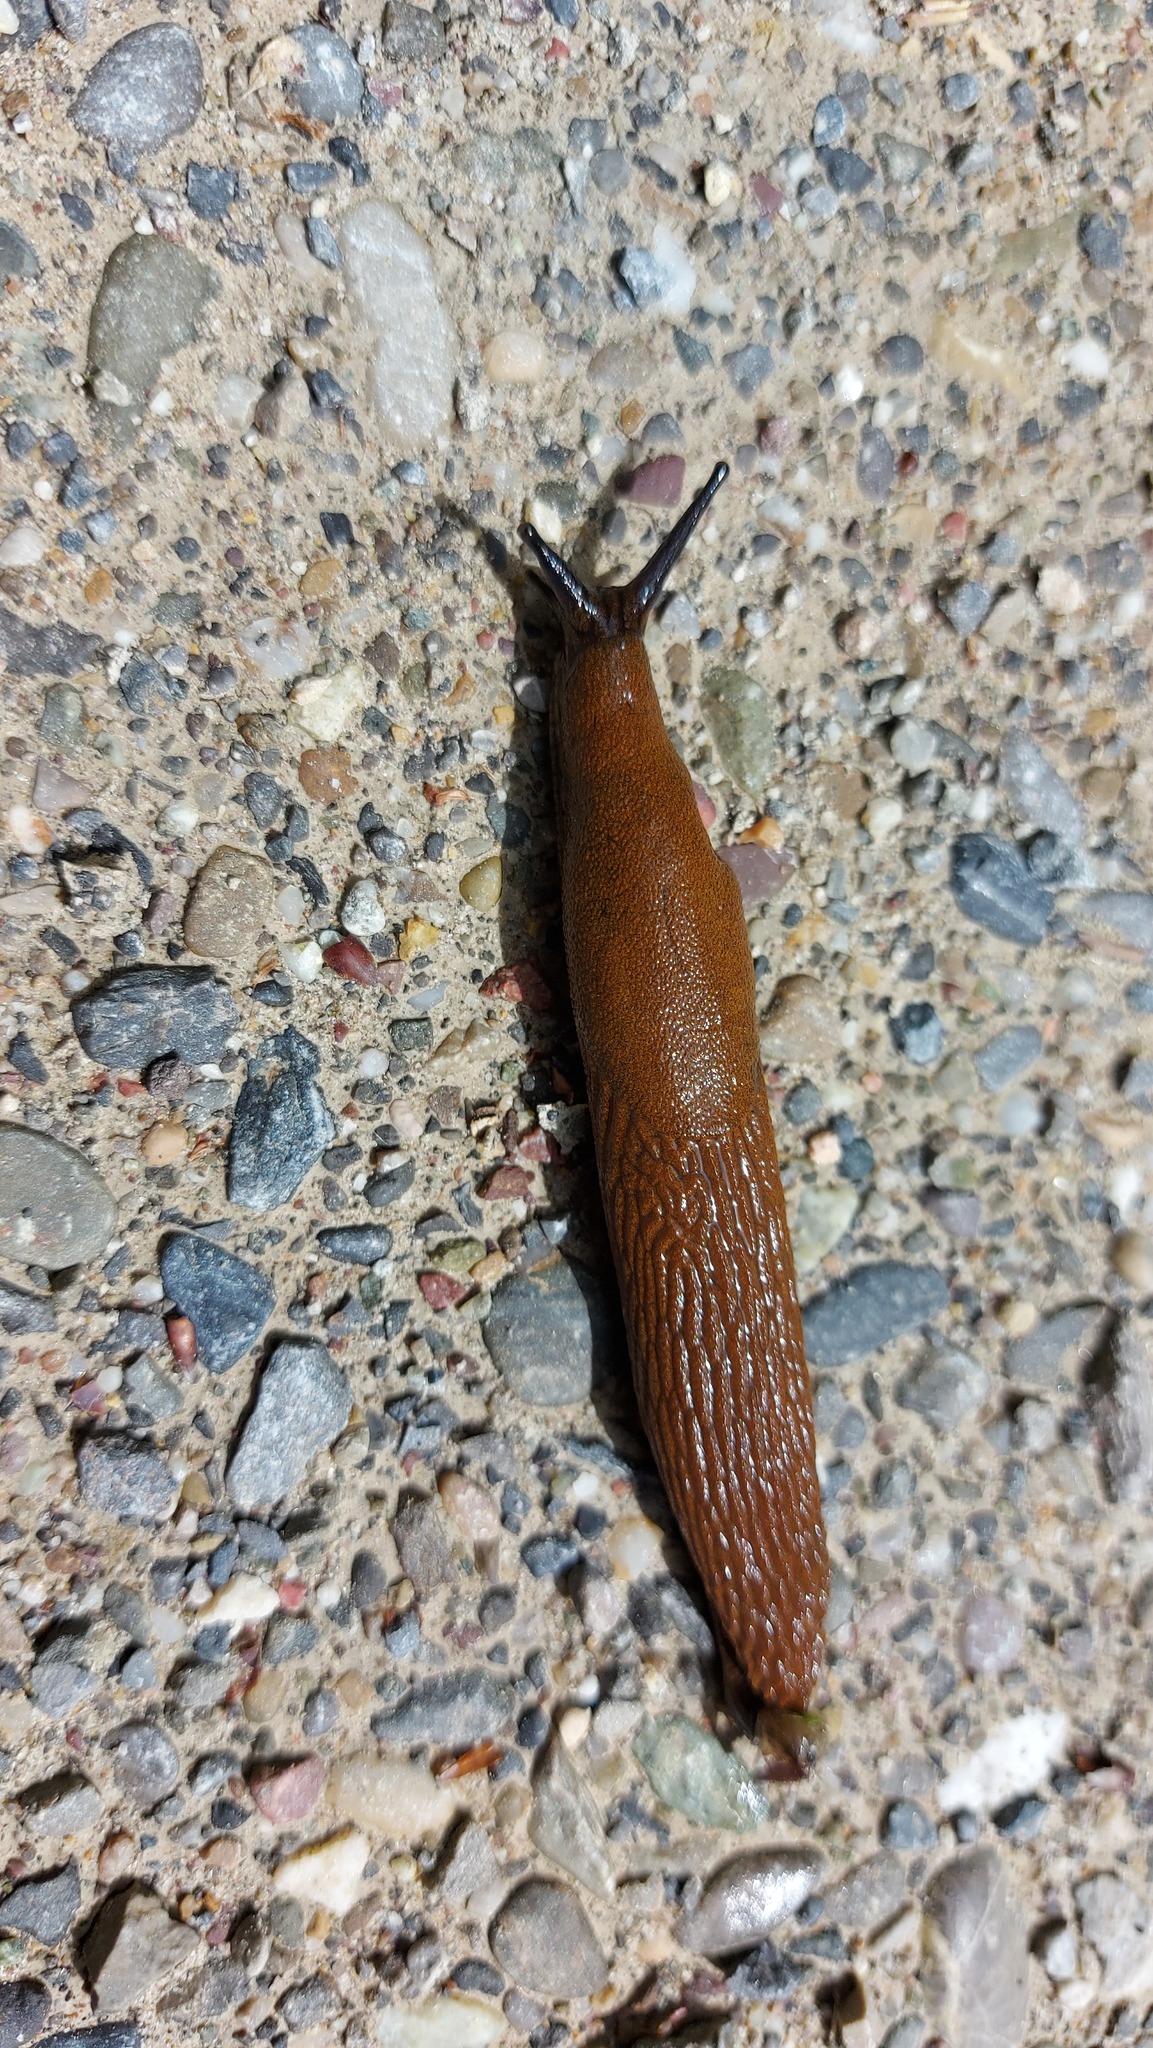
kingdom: Animalia
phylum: Mollusca
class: Gastropoda
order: Stylommatophora
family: Arionidae
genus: Arion
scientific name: Arion
